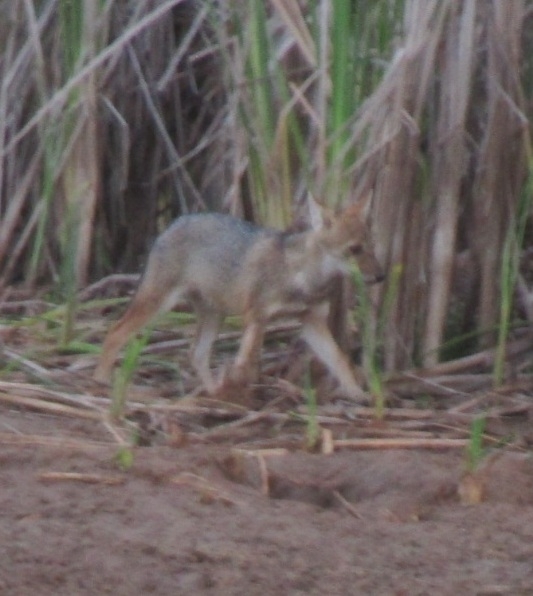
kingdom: Animalia
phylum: Chordata
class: Mammalia
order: Carnivora
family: Canidae
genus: Canis
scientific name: Canis aureus
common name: Golden jackal
